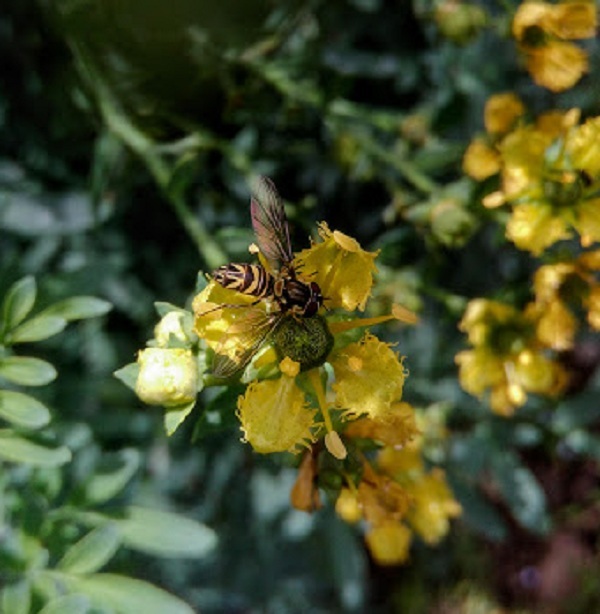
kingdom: Animalia
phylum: Arthropoda
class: Insecta
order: Diptera
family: Syrphidae
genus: Allograpta
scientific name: Allograpta neotropica
